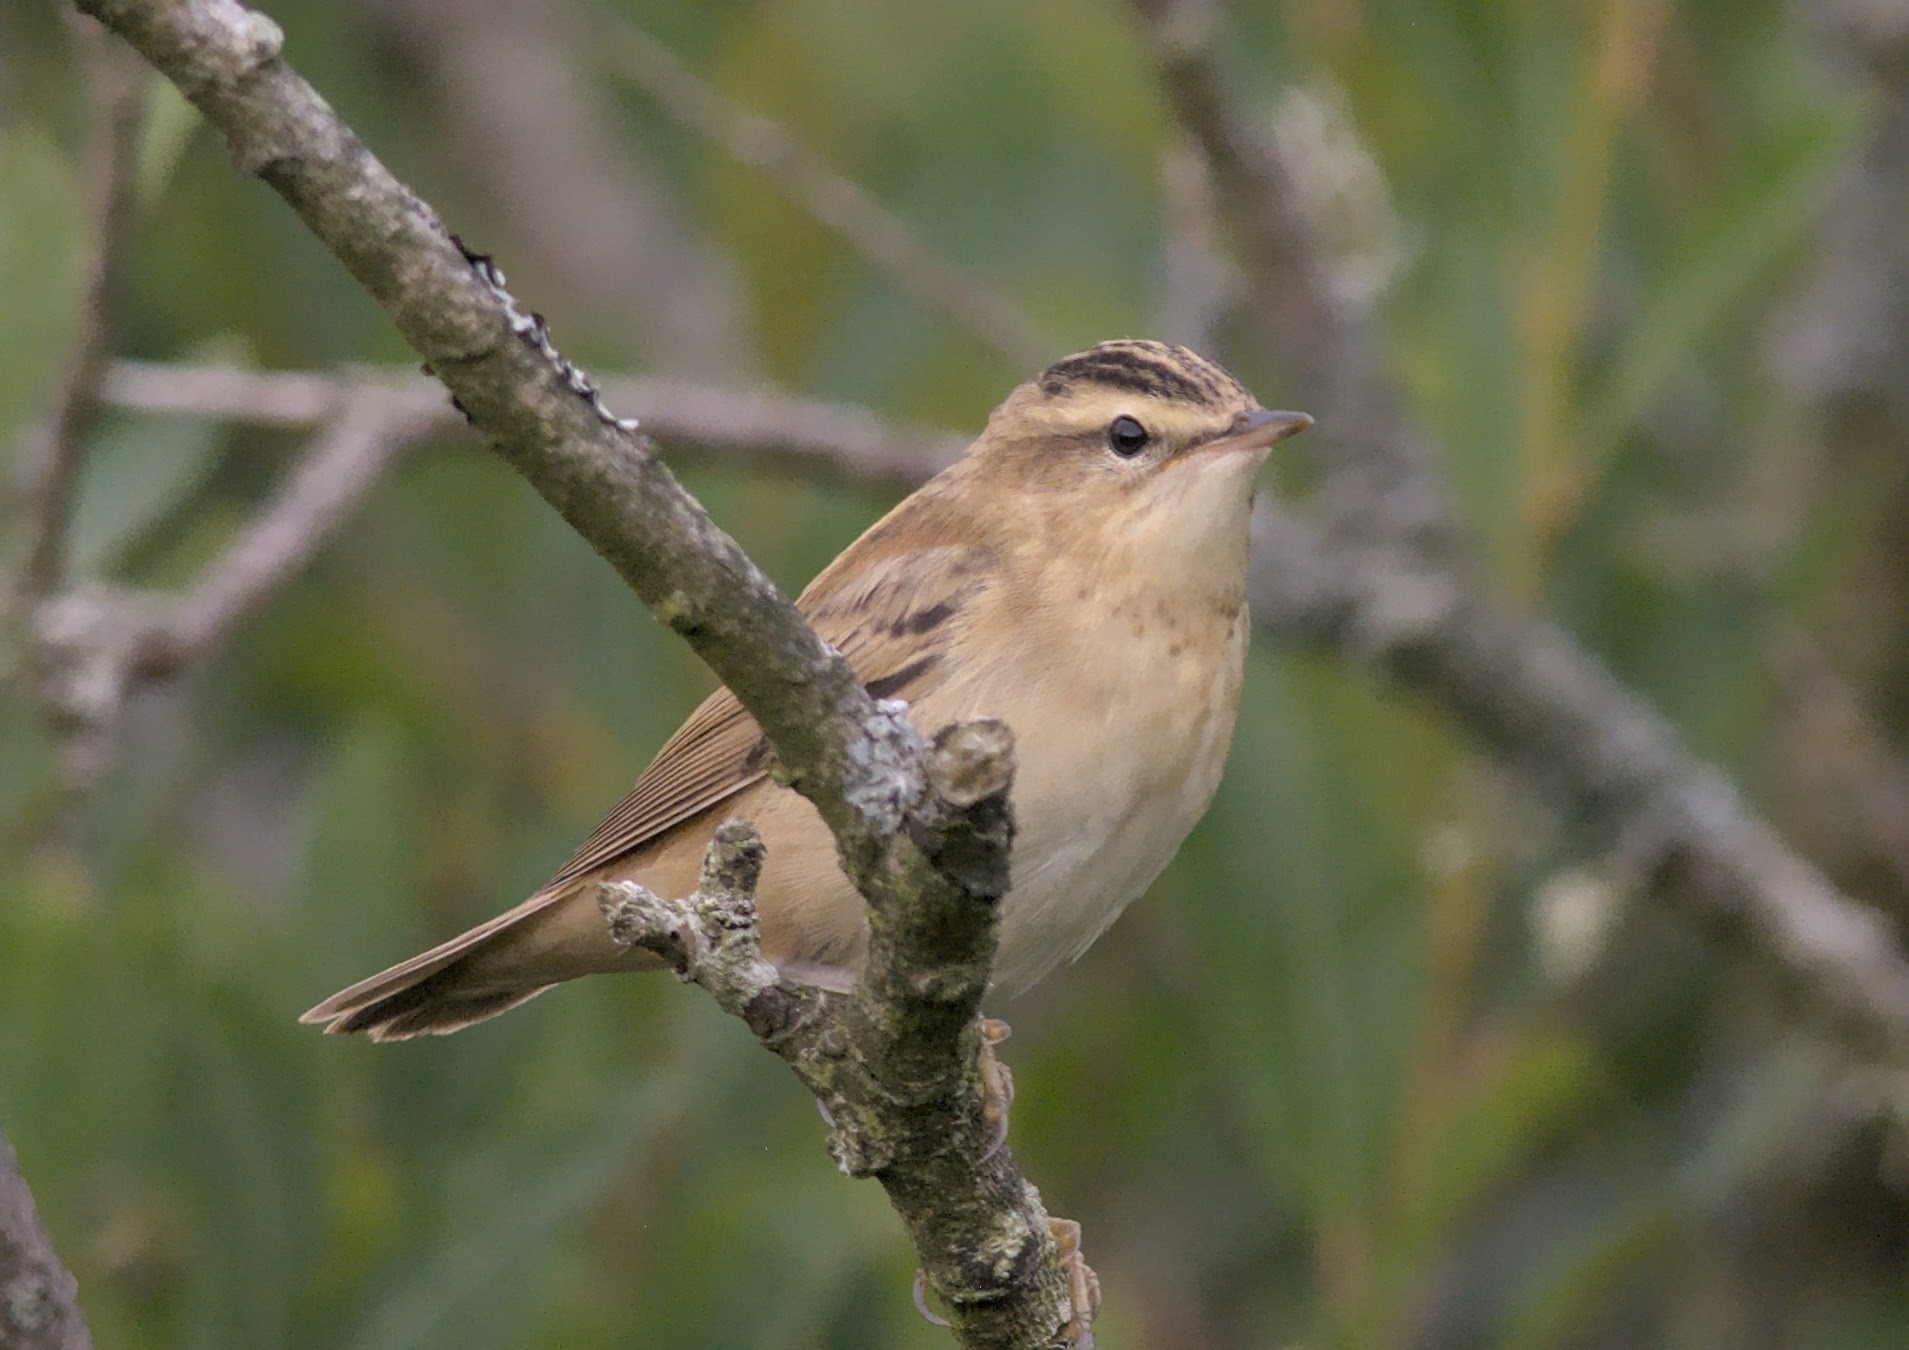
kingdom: Animalia
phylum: Chordata
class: Aves
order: Passeriformes
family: Acrocephalidae
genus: Acrocephalus
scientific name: Acrocephalus schoenobaenus
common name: Sedge warbler
